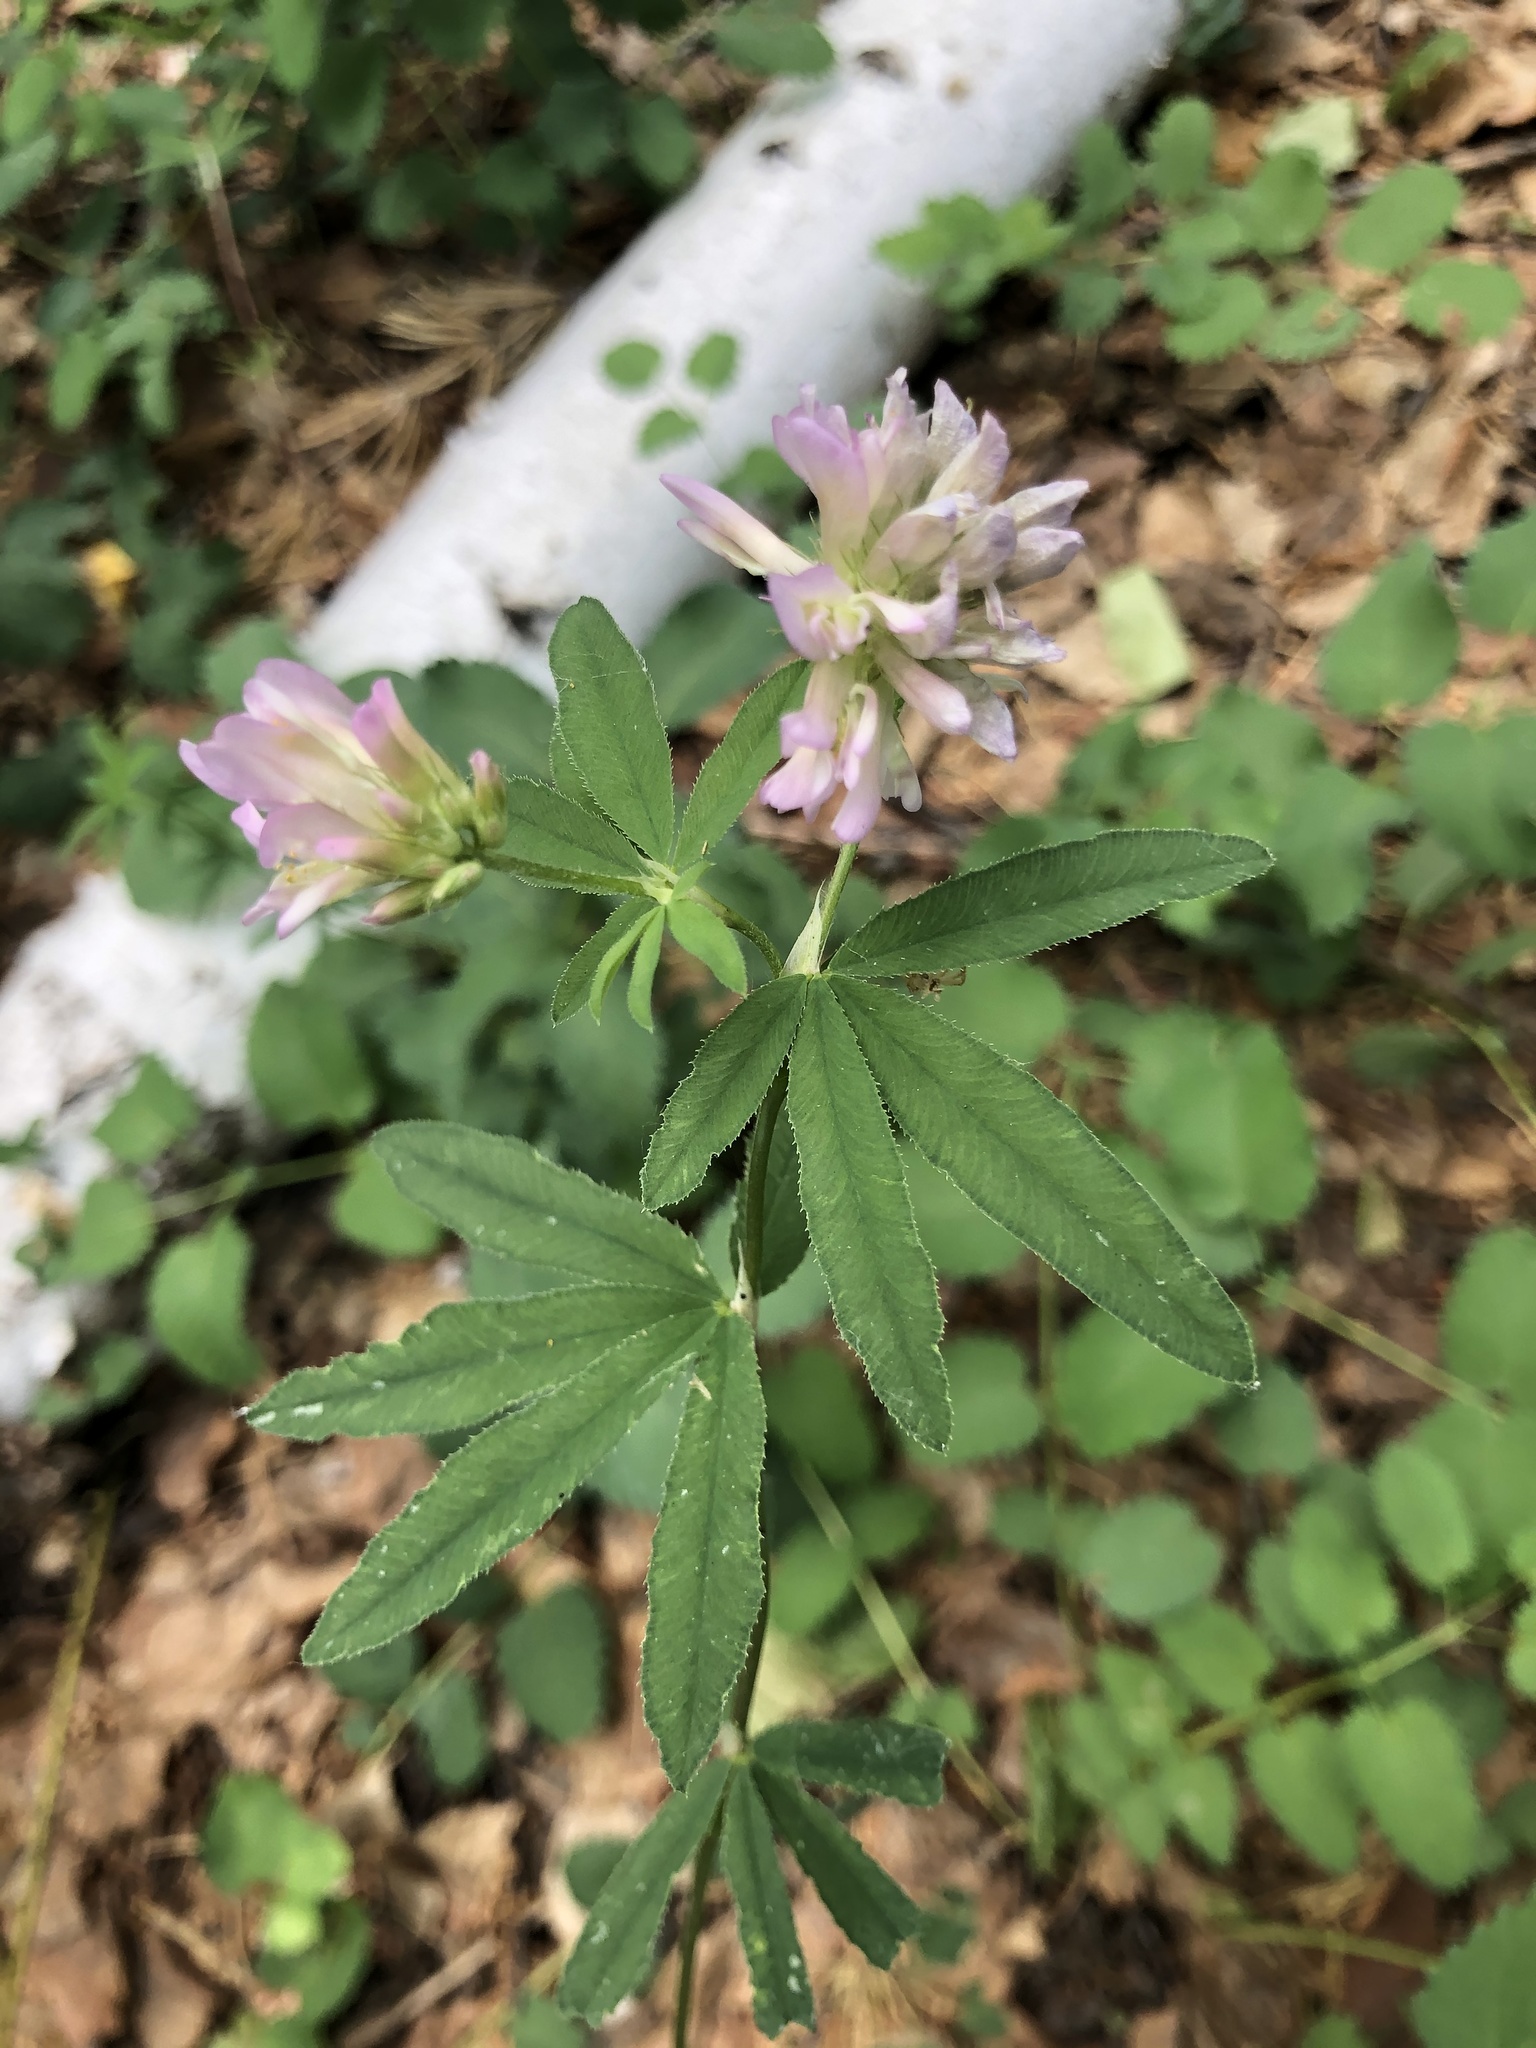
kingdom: Plantae
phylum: Tracheophyta
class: Magnoliopsida
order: Fabales
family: Fabaceae
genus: Trifolium
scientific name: Trifolium lupinaster
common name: Lupine clover
